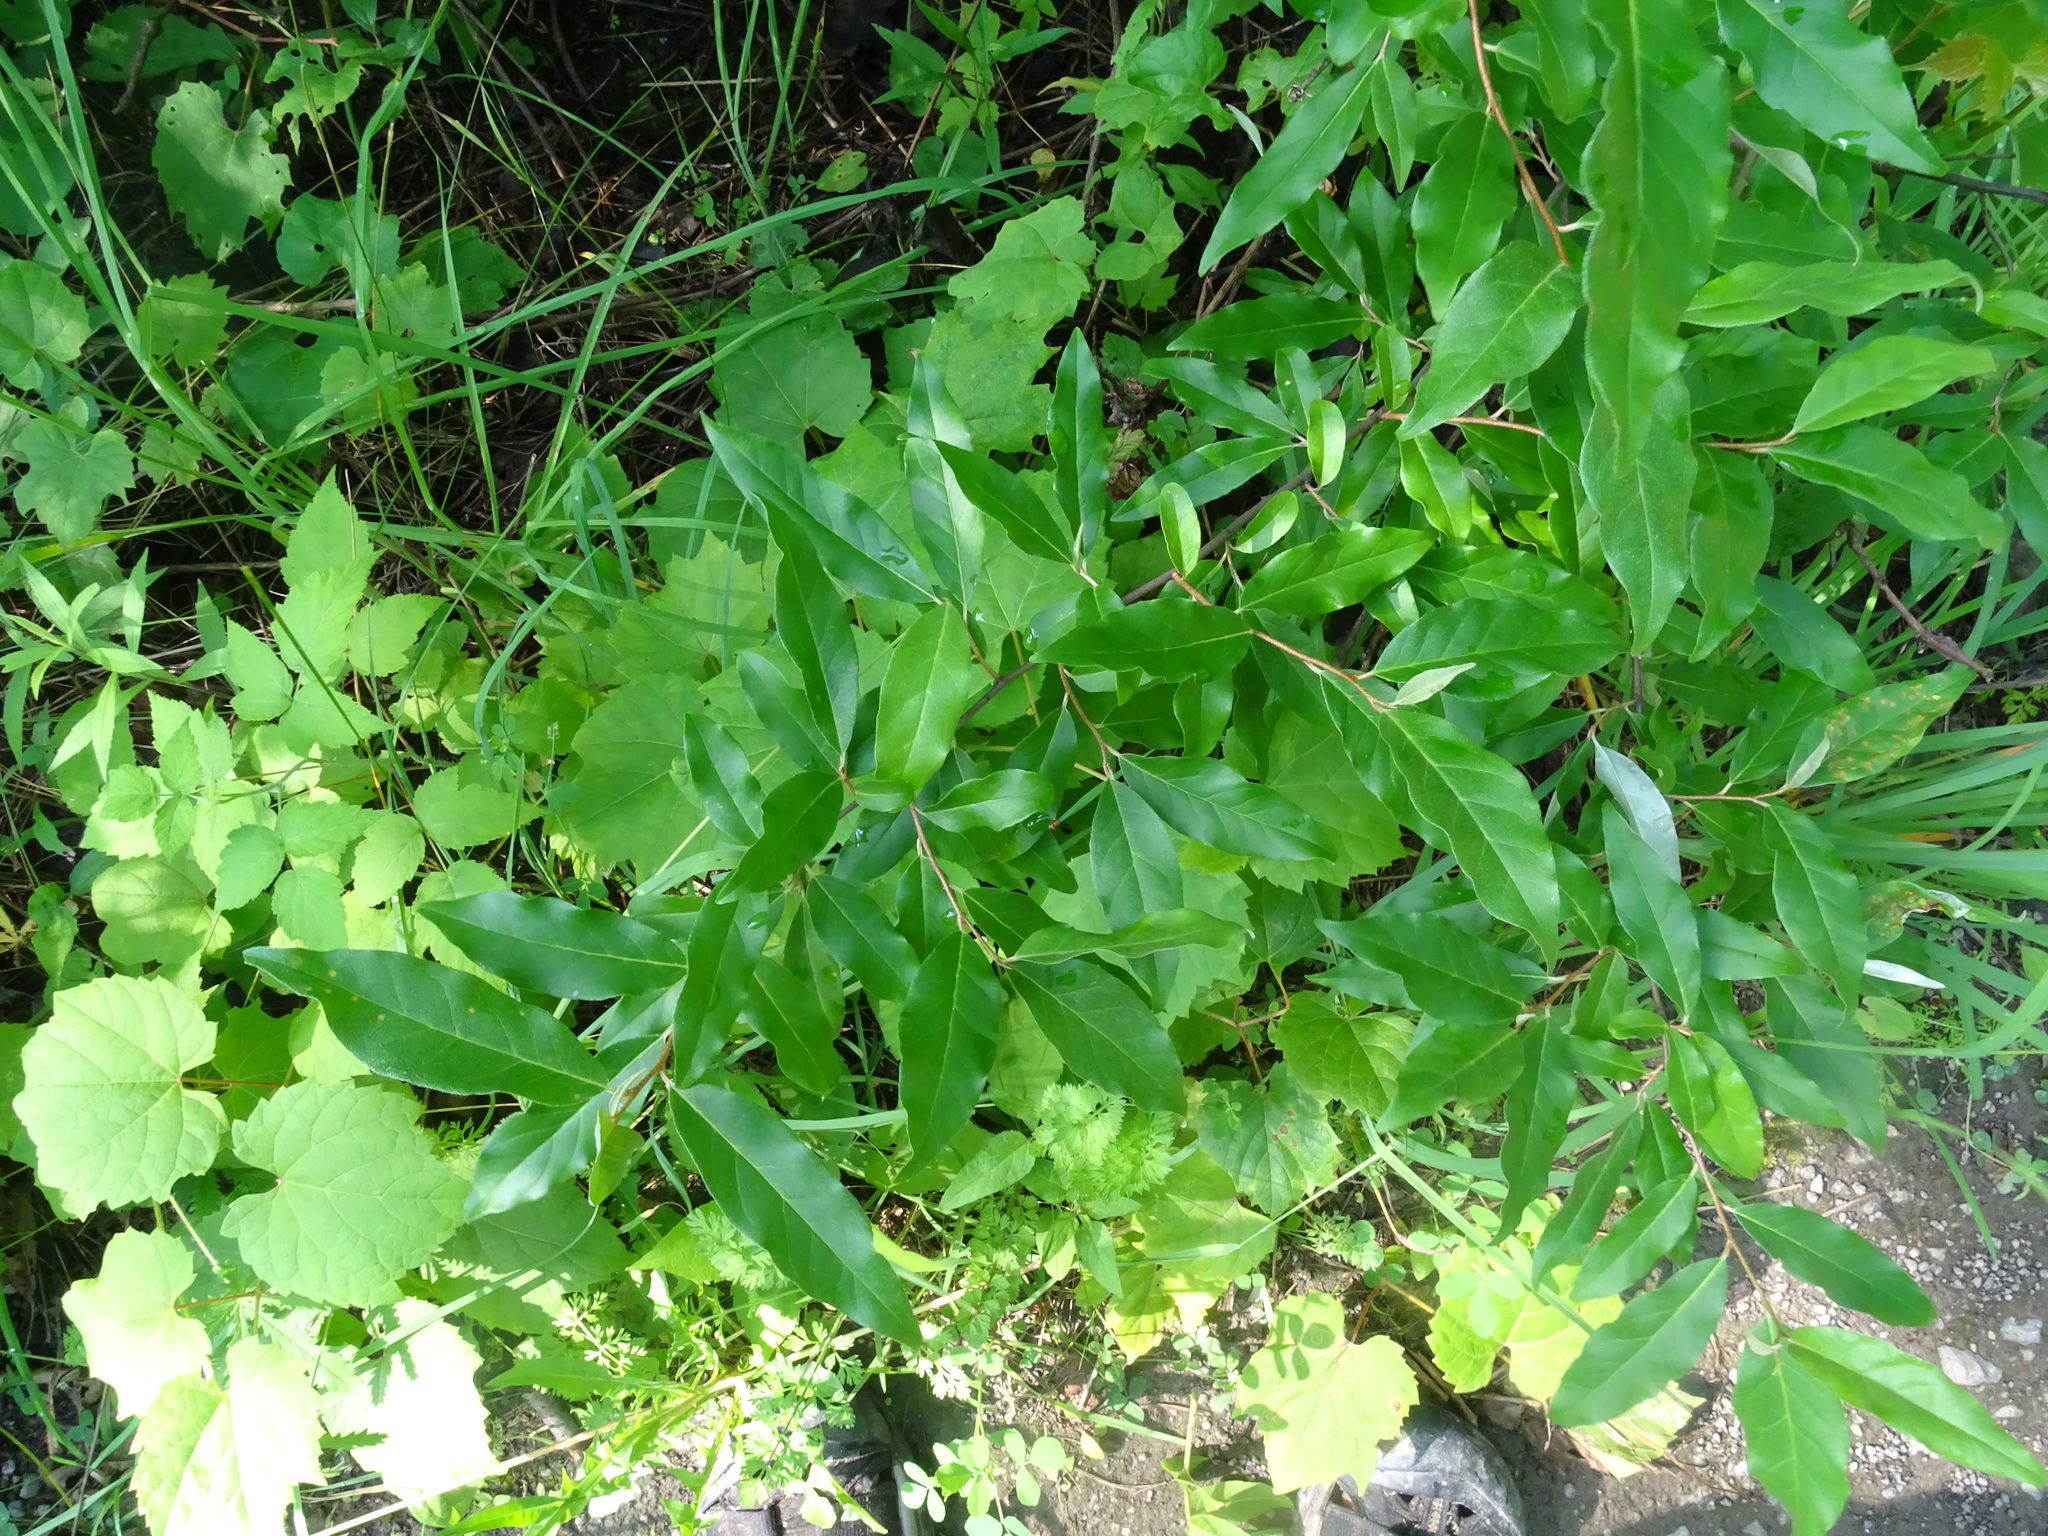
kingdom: Plantae
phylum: Tracheophyta
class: Magnoliopsida
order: Rosales
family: Elaeagnaceae
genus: Elaeagnus
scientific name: Elaeagnus umbellata
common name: Autumn olive
